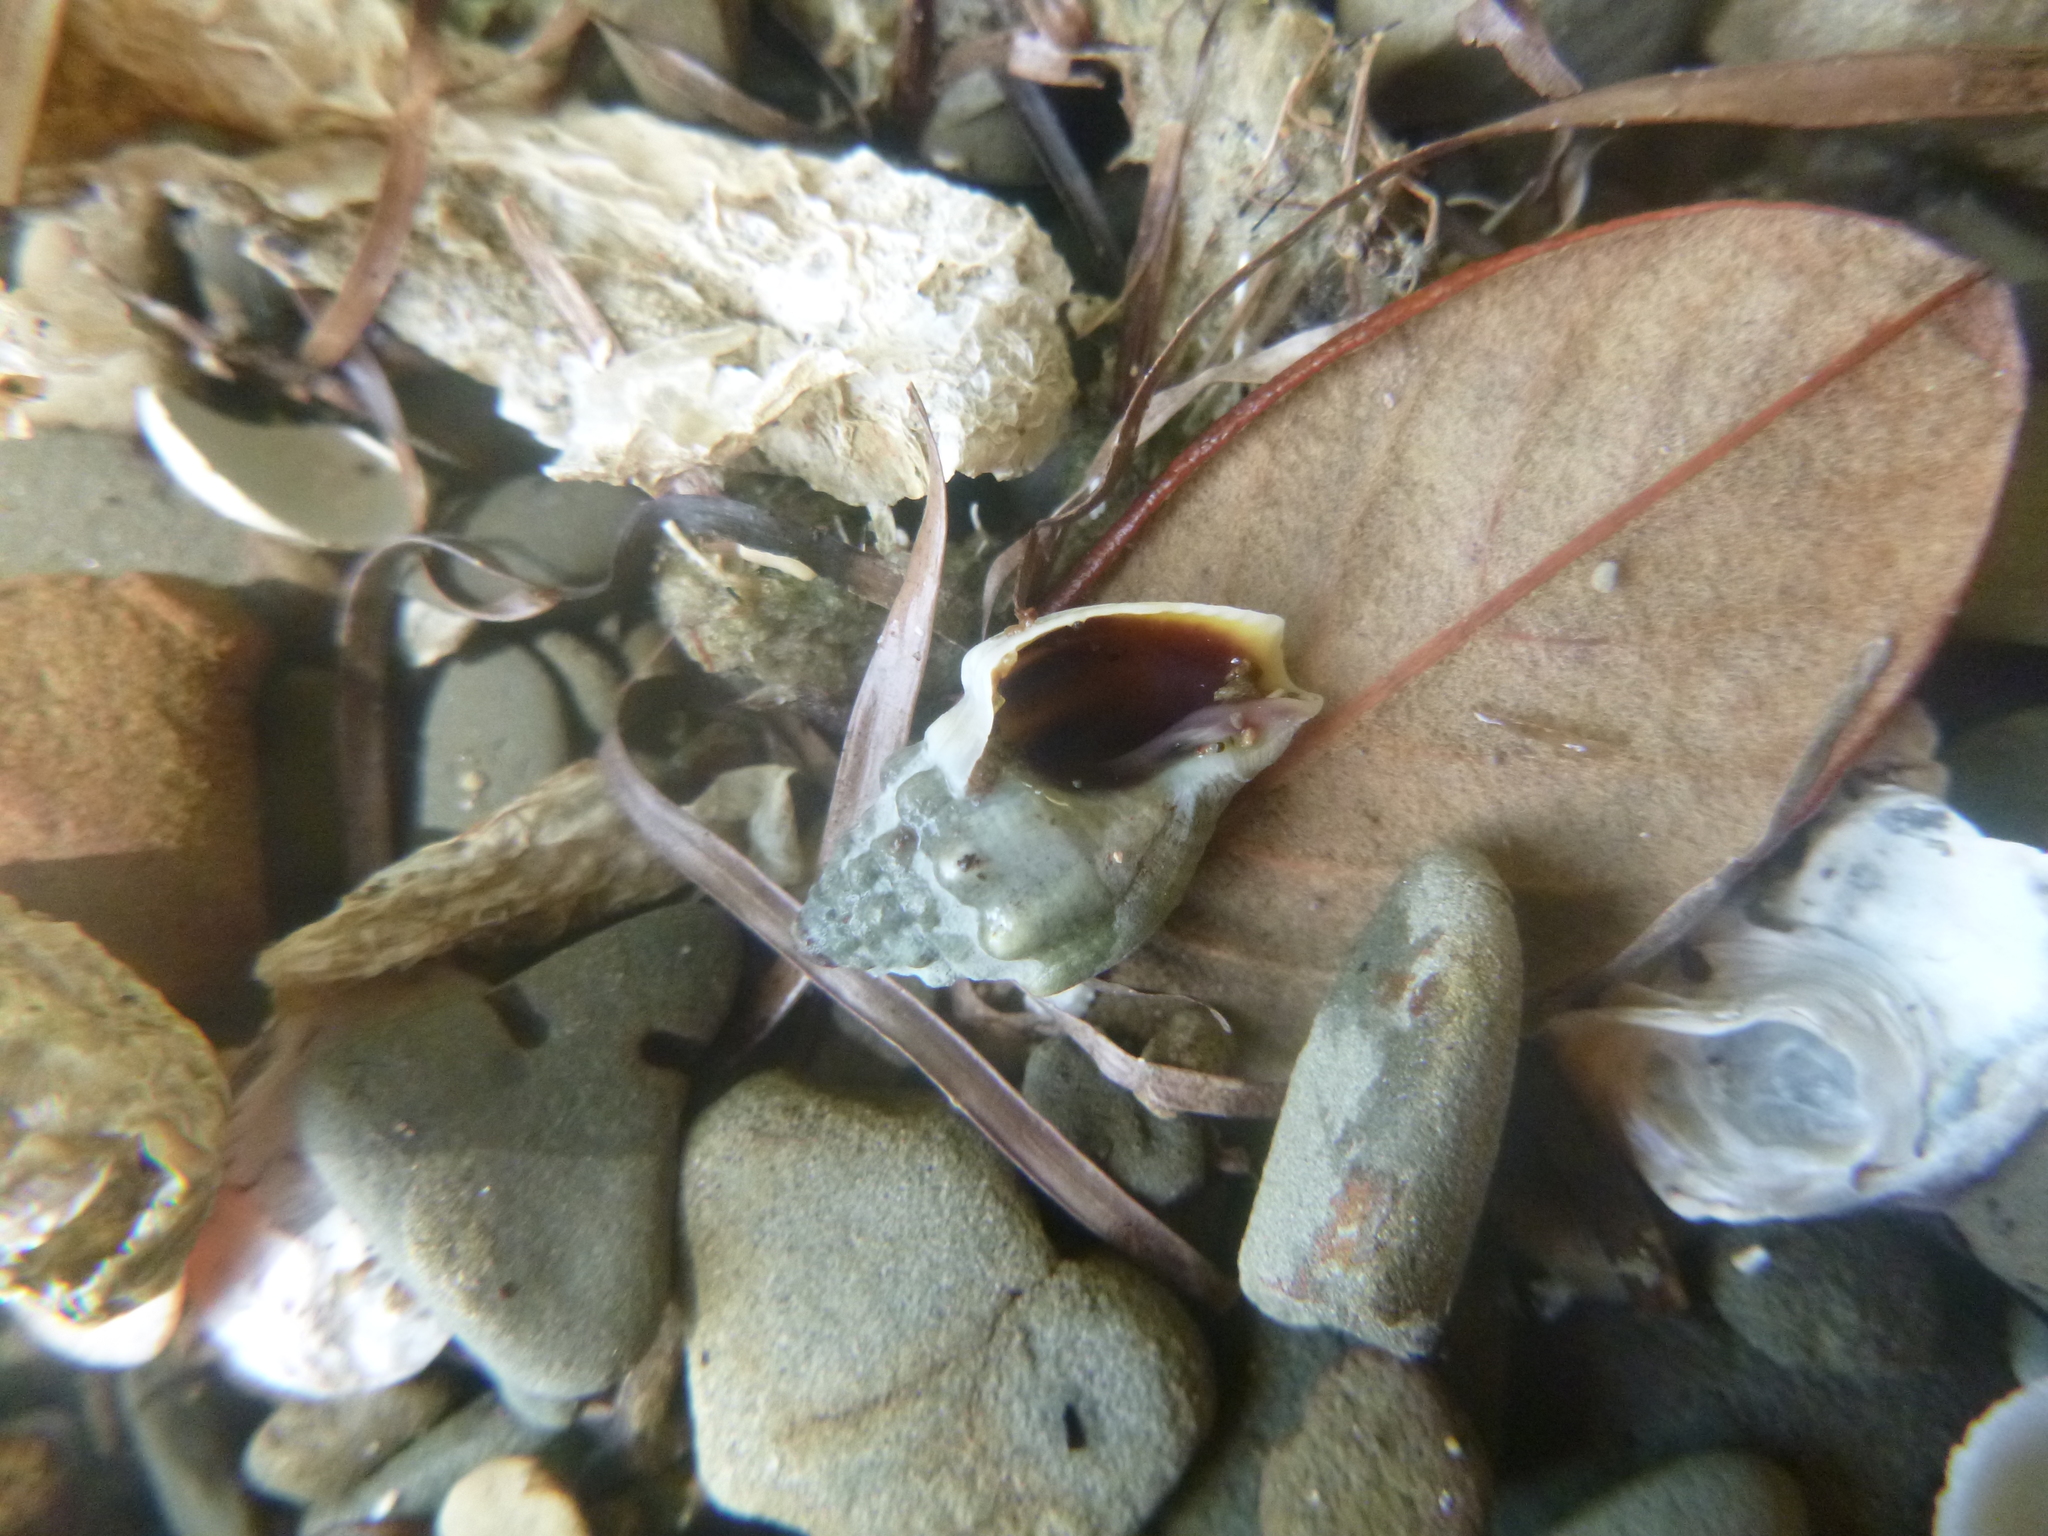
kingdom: Animalia
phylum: Mollusca
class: Gastropoda
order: Neogastropoda
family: Cominellidae
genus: Cominella
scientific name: Cominella glandiformis
